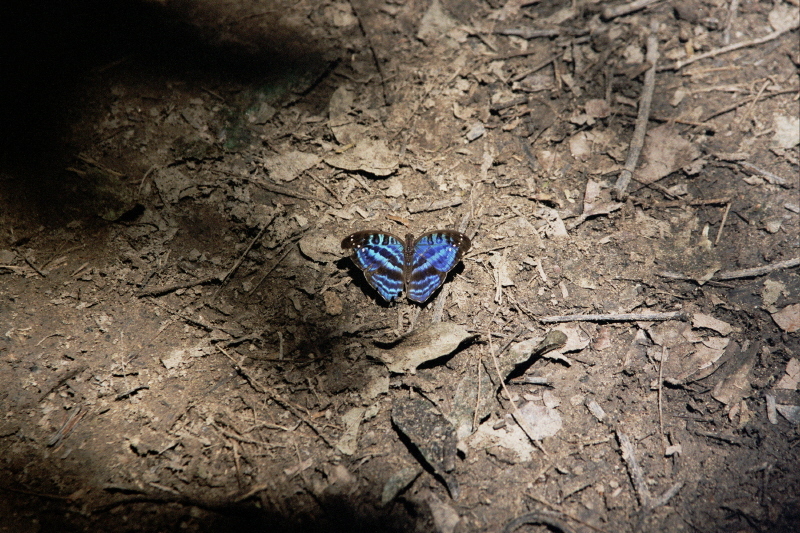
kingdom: Animalia
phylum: Arthropoda
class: Insecta
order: Lepidoptera
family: Nymphalidae
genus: Cynandra
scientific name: Cynandra opis
